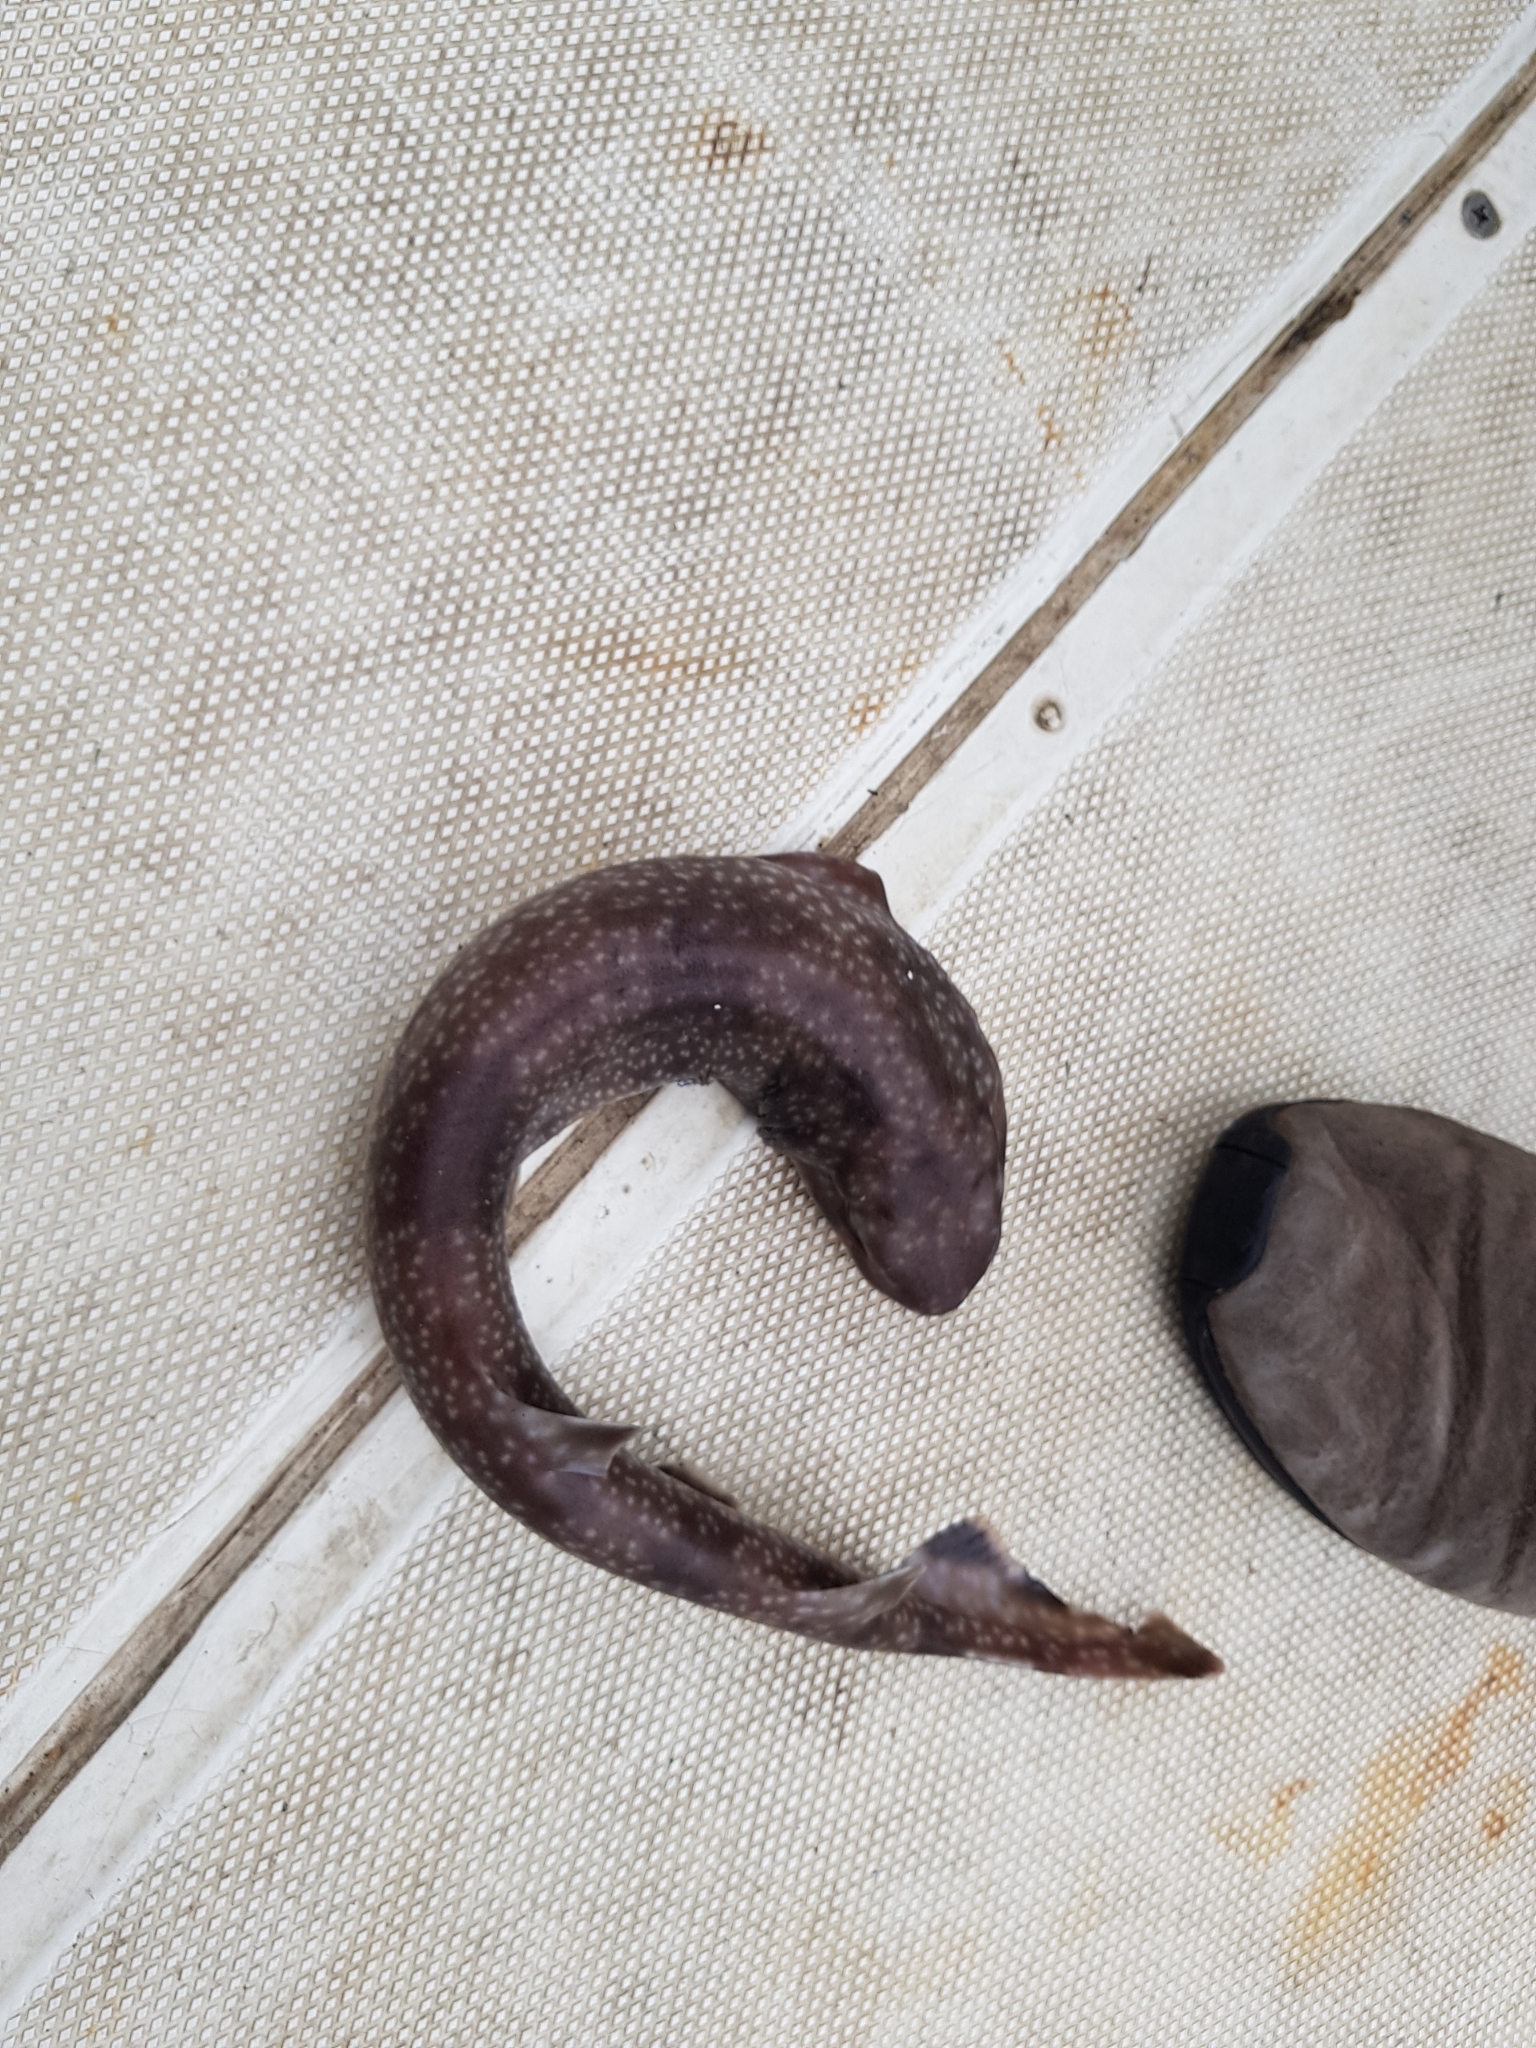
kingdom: Animalia
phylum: Chordata
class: Elasmobranchii
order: Carcharhiniformes
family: Scyliorhinidae
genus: Asymbolus
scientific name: Asymbolus vincenti
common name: Gulf catshark
